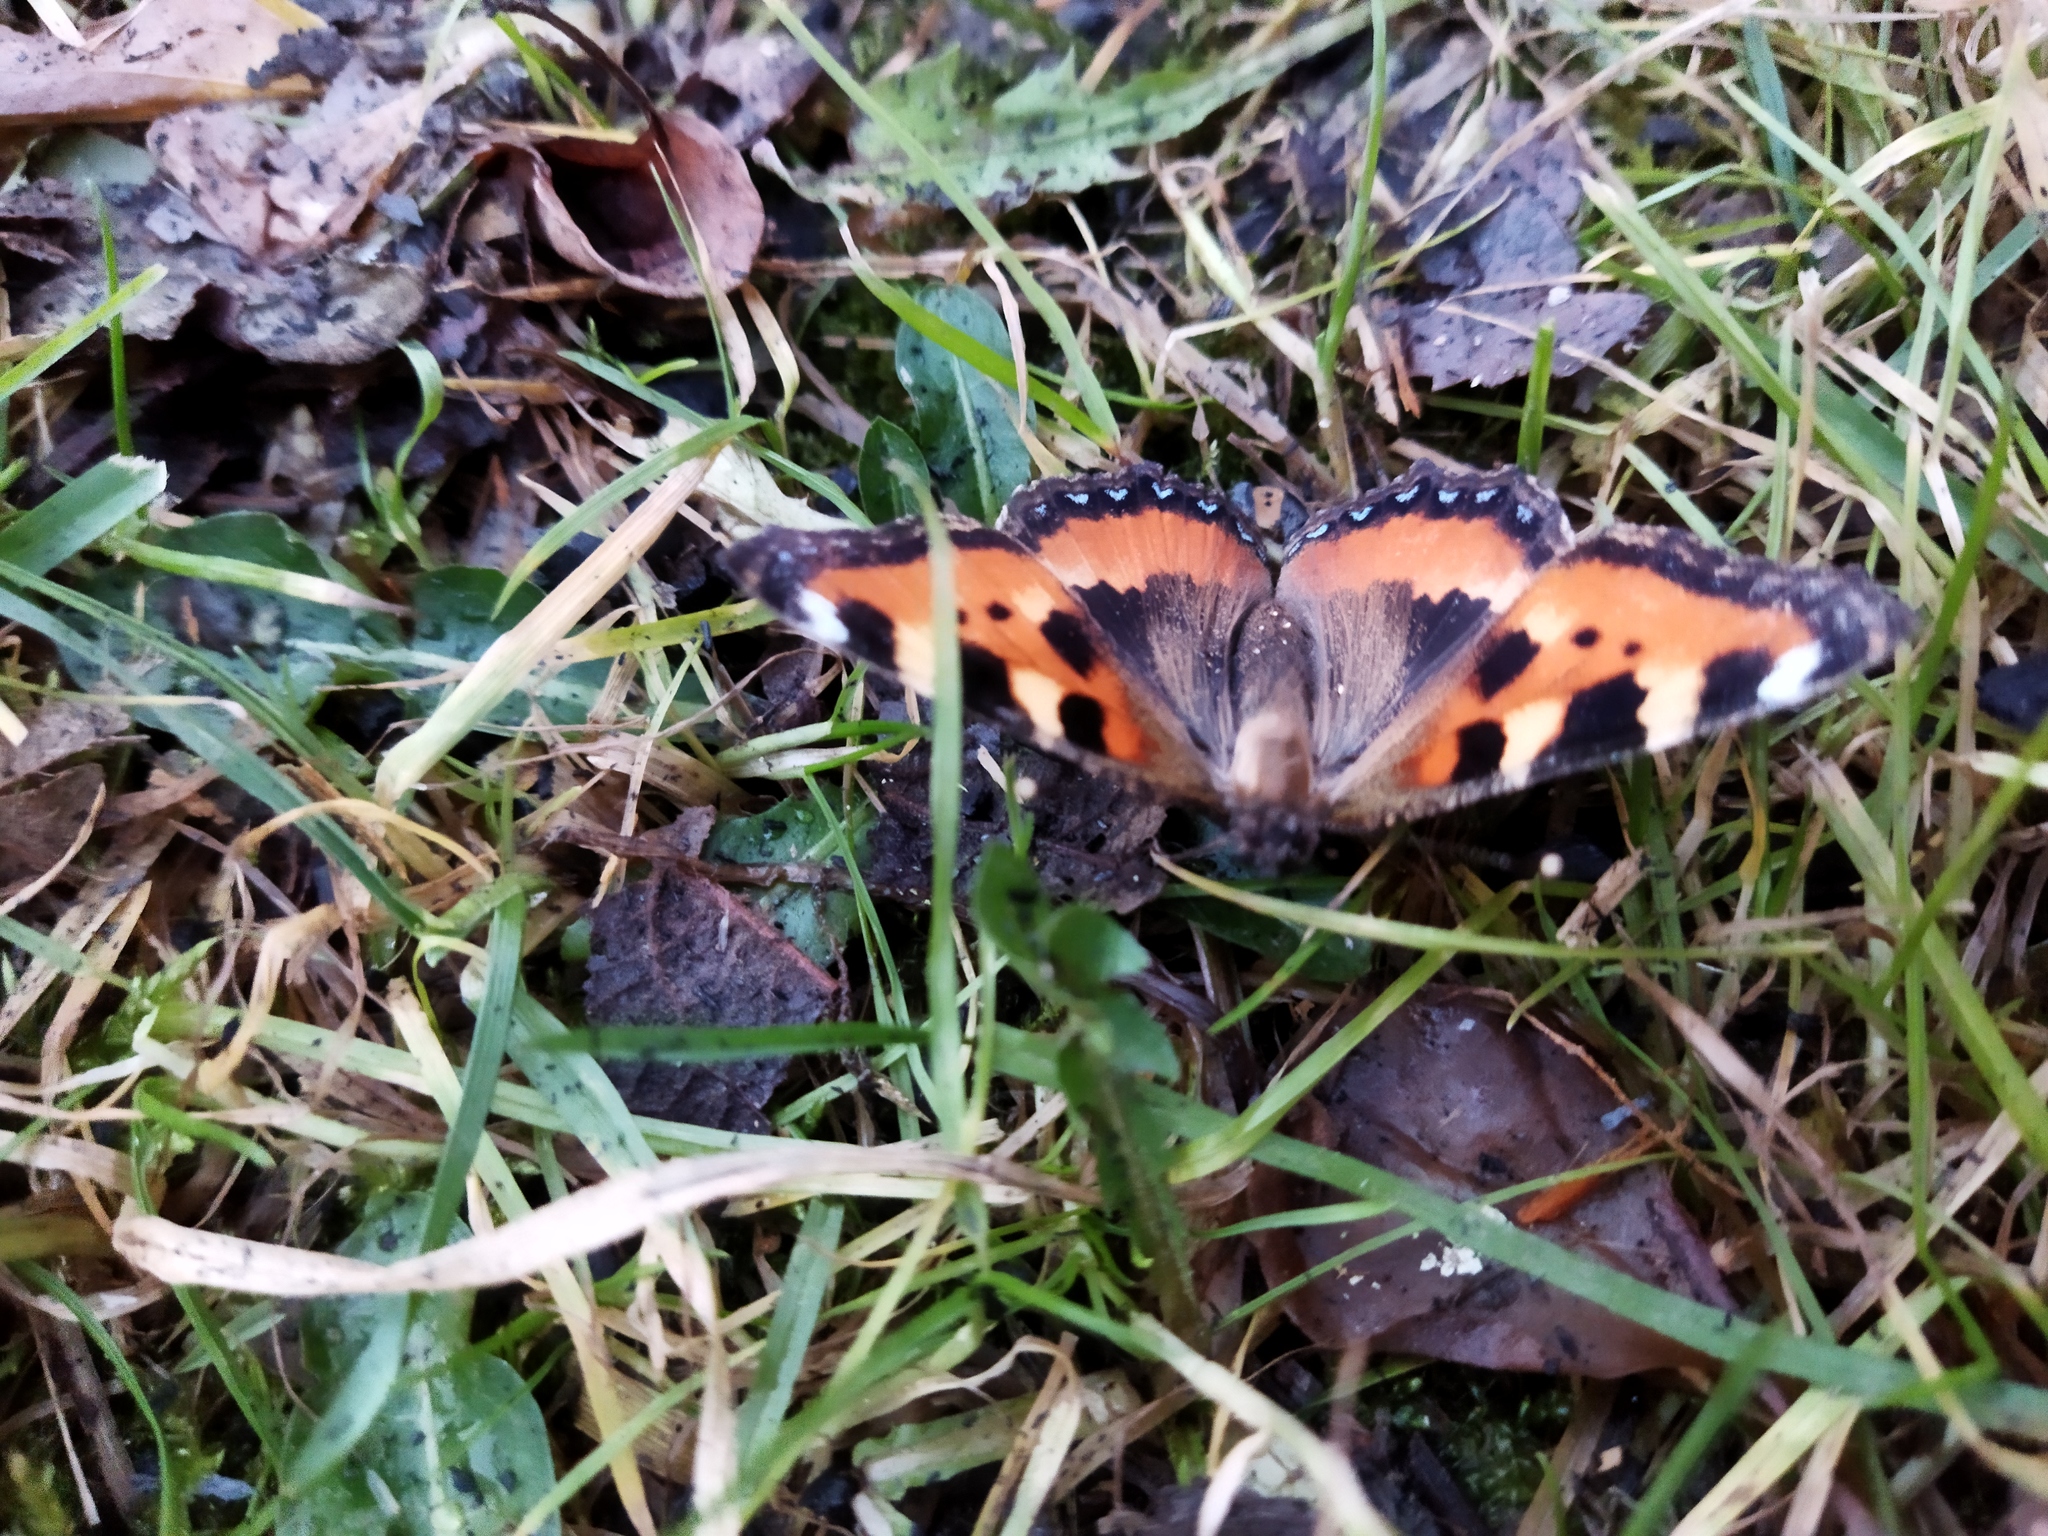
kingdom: Animalia
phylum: Arthropoda
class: Insecta
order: Lepidoptera
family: Nymphalidae
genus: Aglais
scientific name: Aglais urticae
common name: Small tortoiseshell
